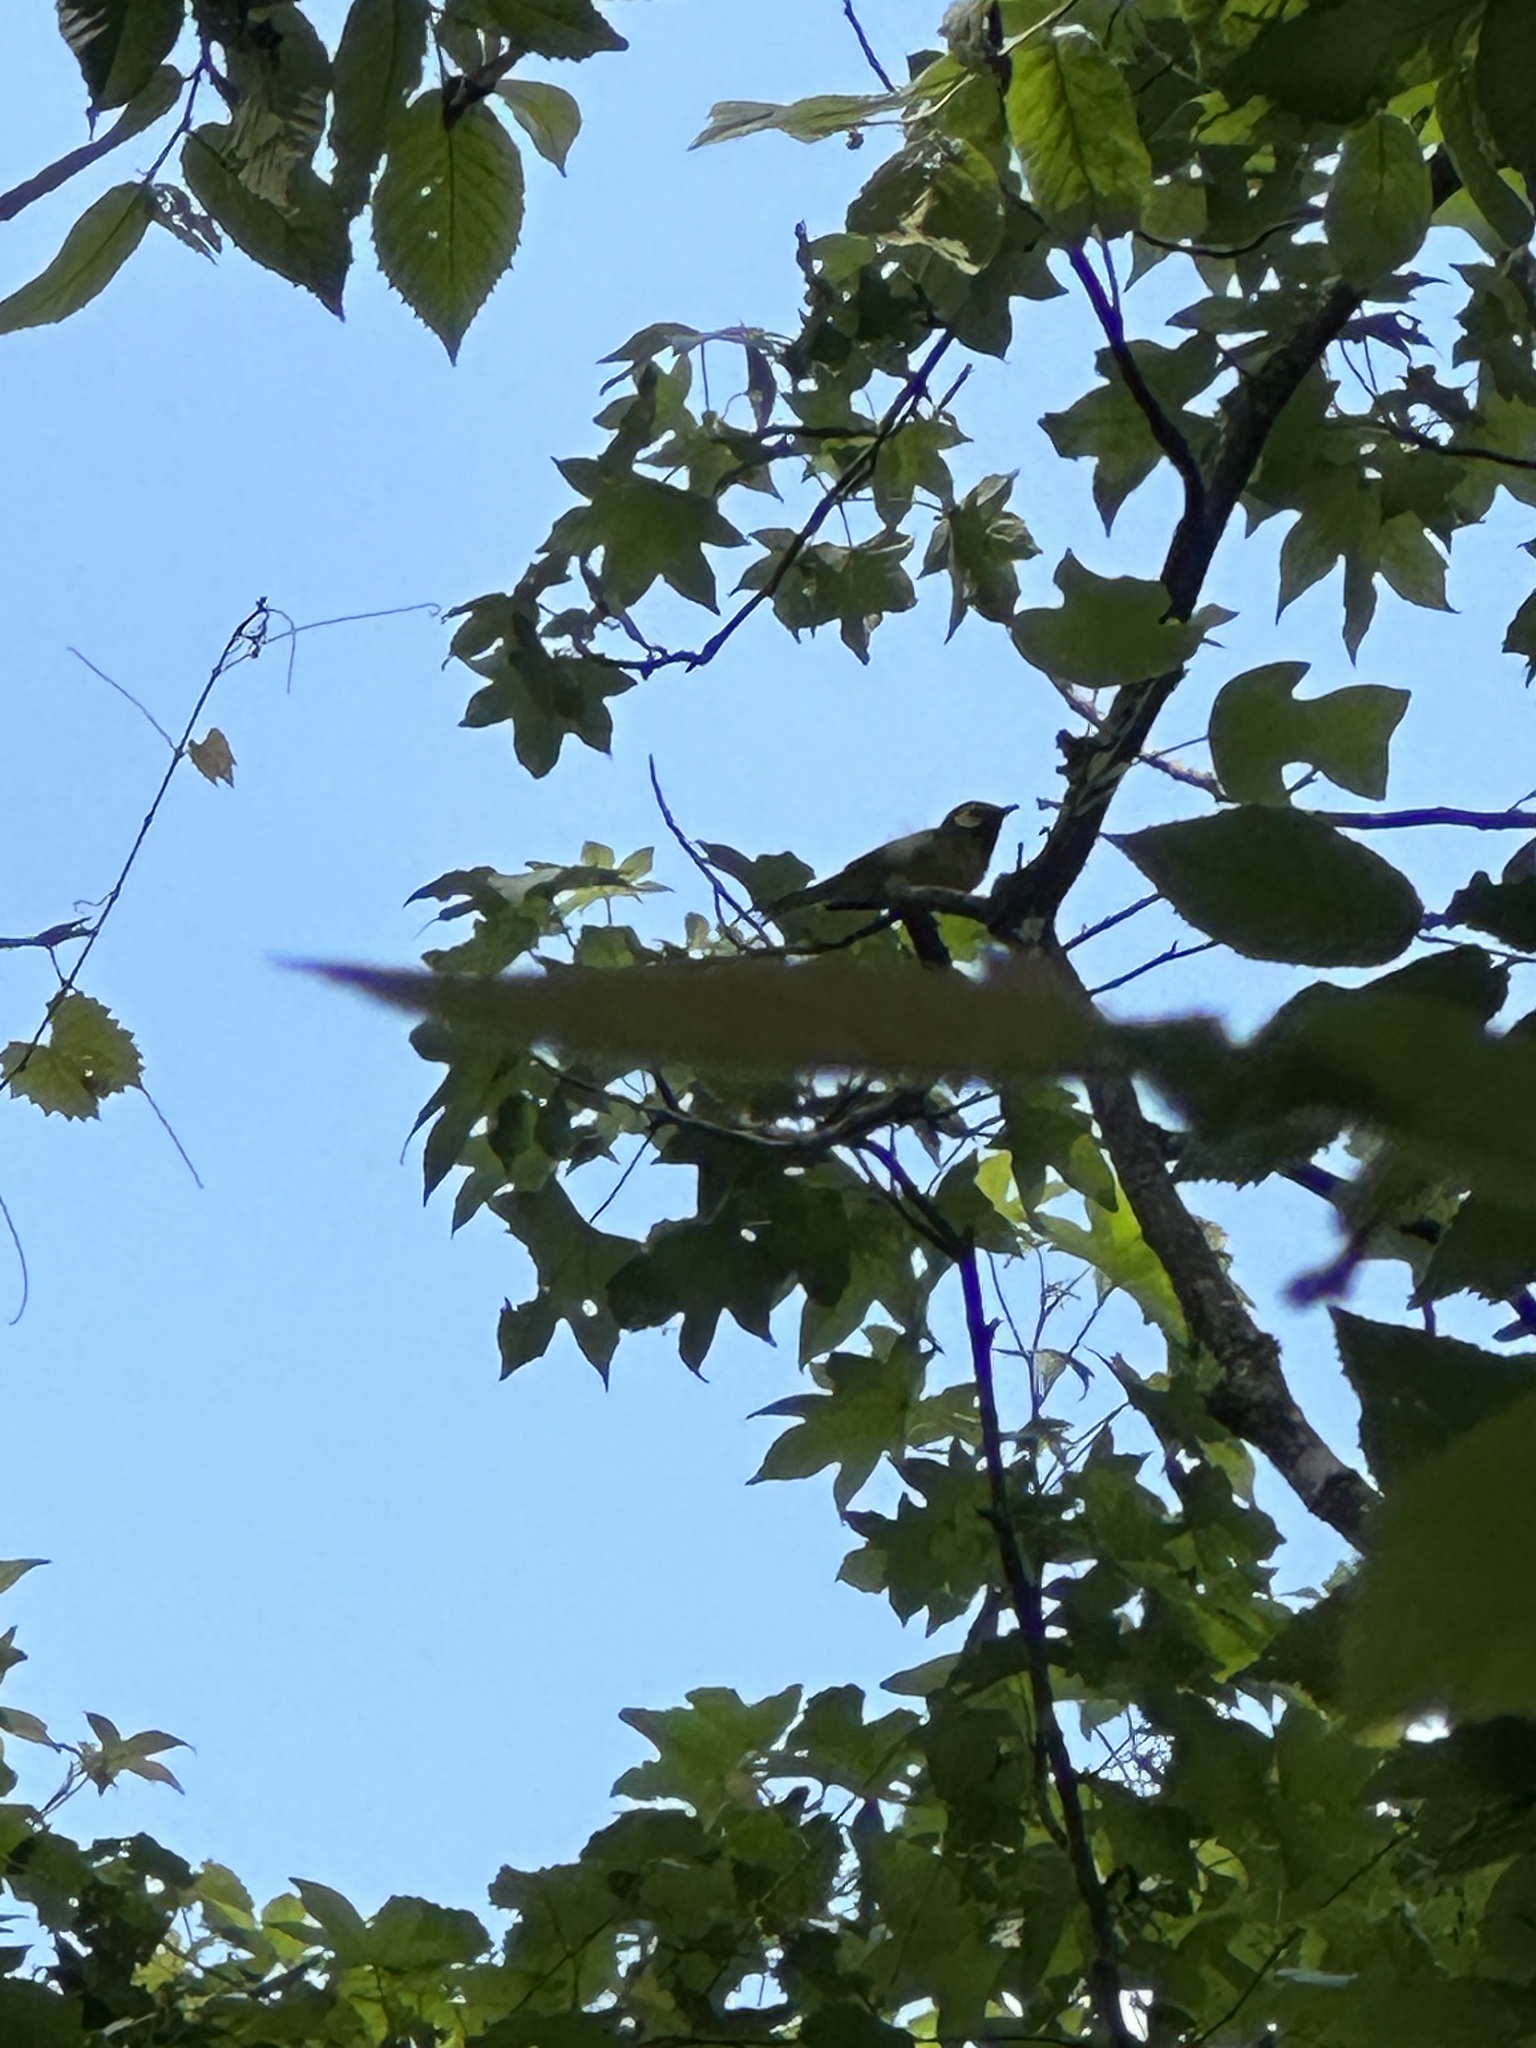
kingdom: Animalia
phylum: Chordata
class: Aves
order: Passeriformes
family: Parulidae
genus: Setophaga
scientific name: Setophaga citrina
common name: Hooded warbler
